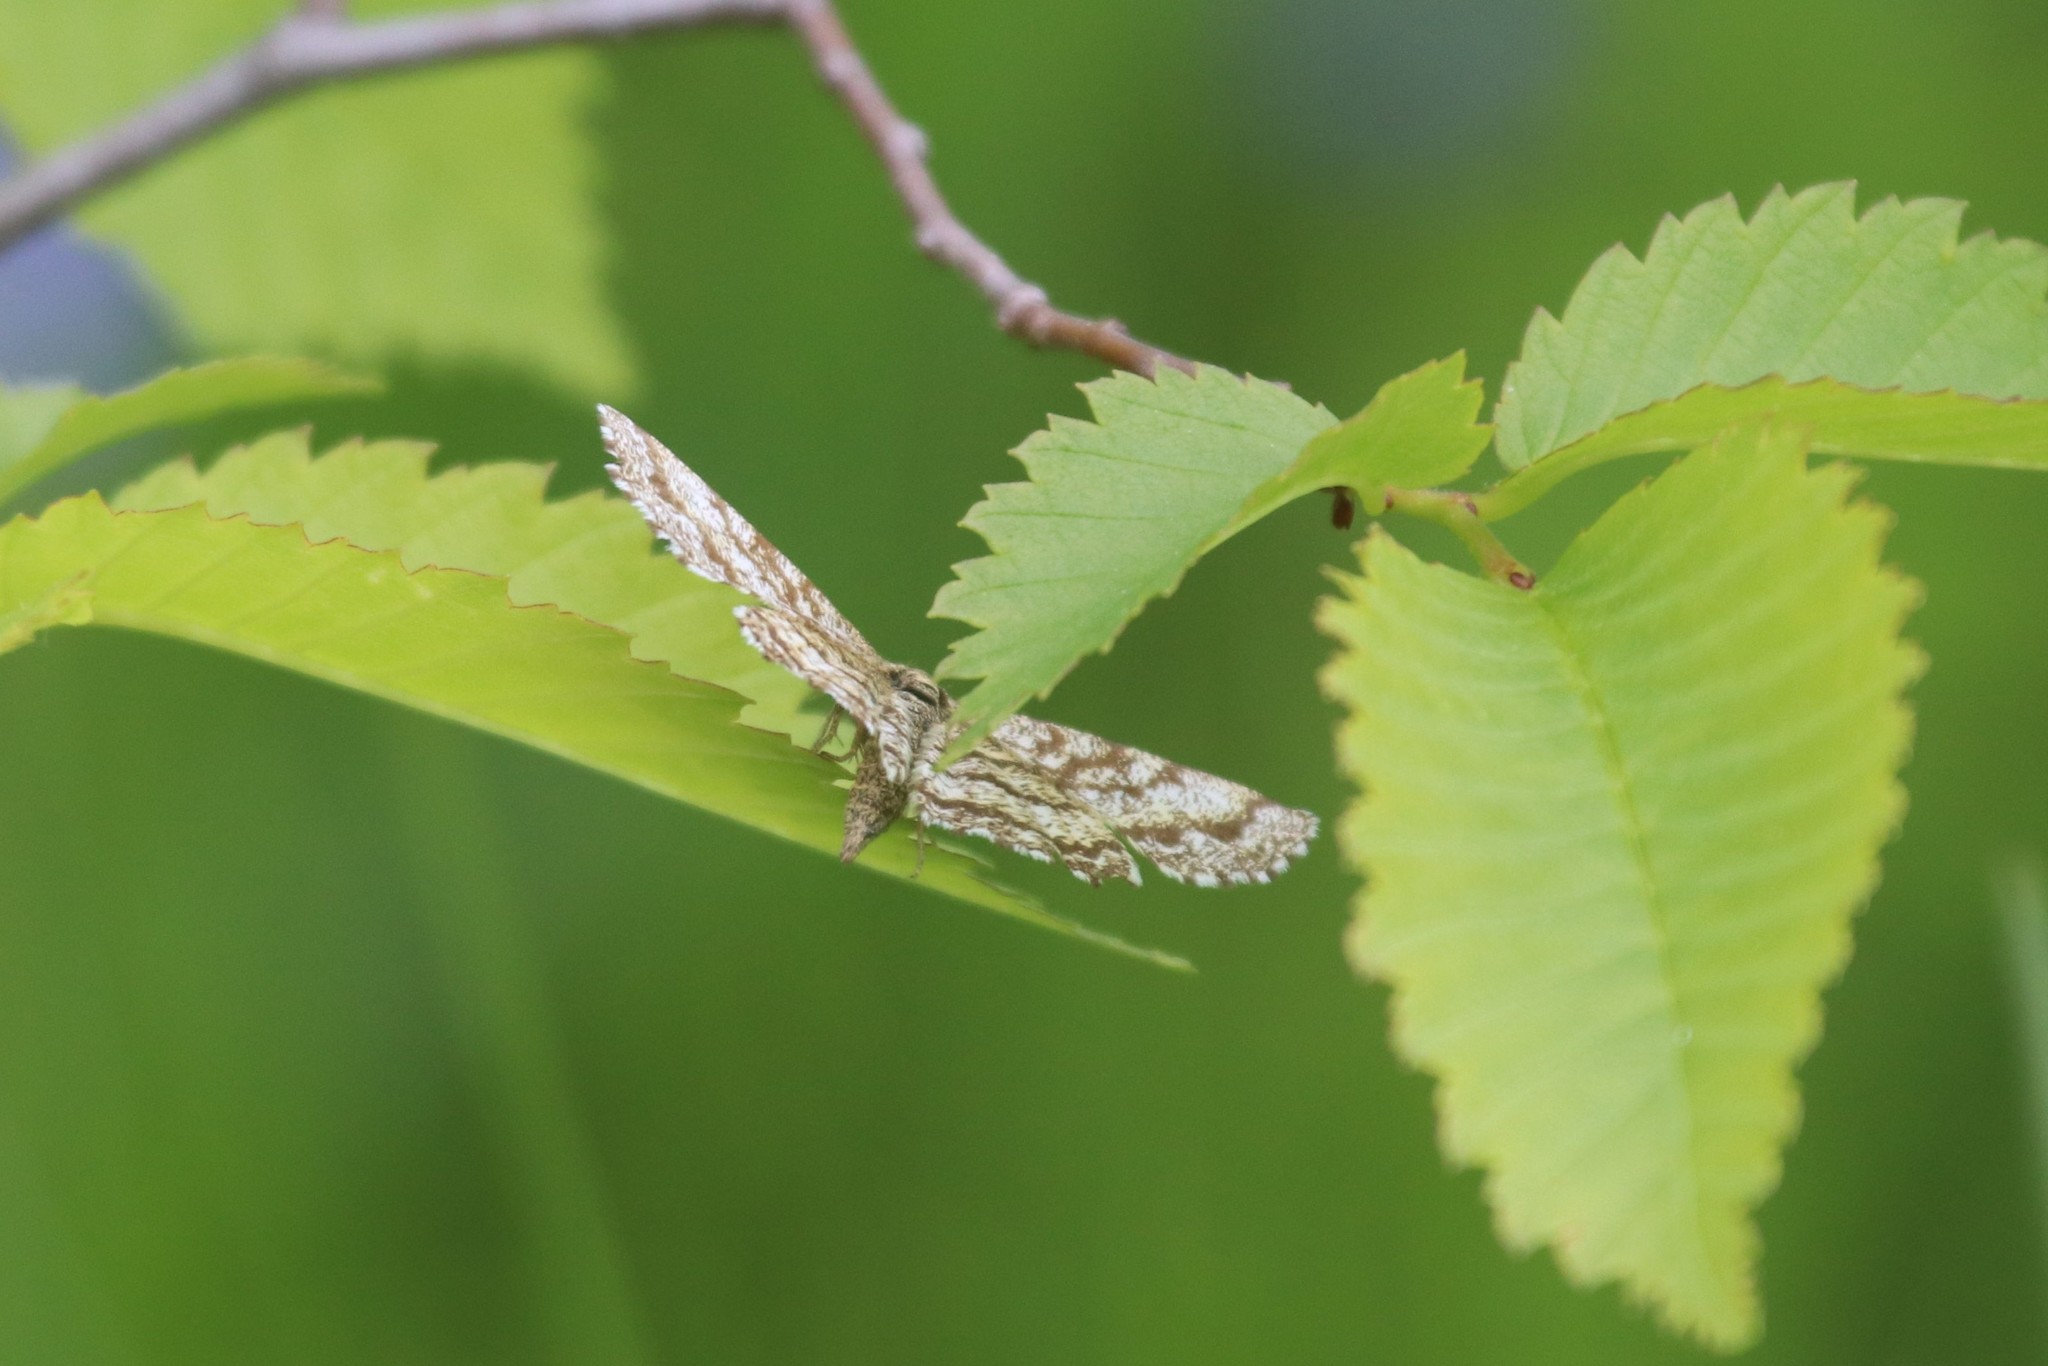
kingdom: Animalia
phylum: Arthropoda
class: Insecta
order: Lepidoptera
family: Geometridae
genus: Ematurga
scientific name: Ematurga atomaria
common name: Common heath
